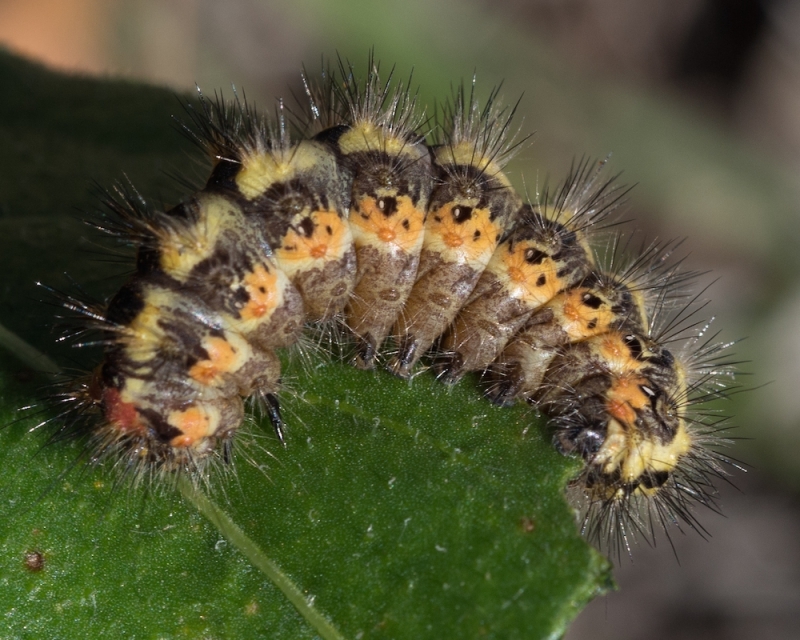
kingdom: Animalia
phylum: Arthropoda
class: Insecta
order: Lepidoptera
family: Noctuidae
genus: Acronicta
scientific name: Acronicta euphorbiae
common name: Sweet gale moth
